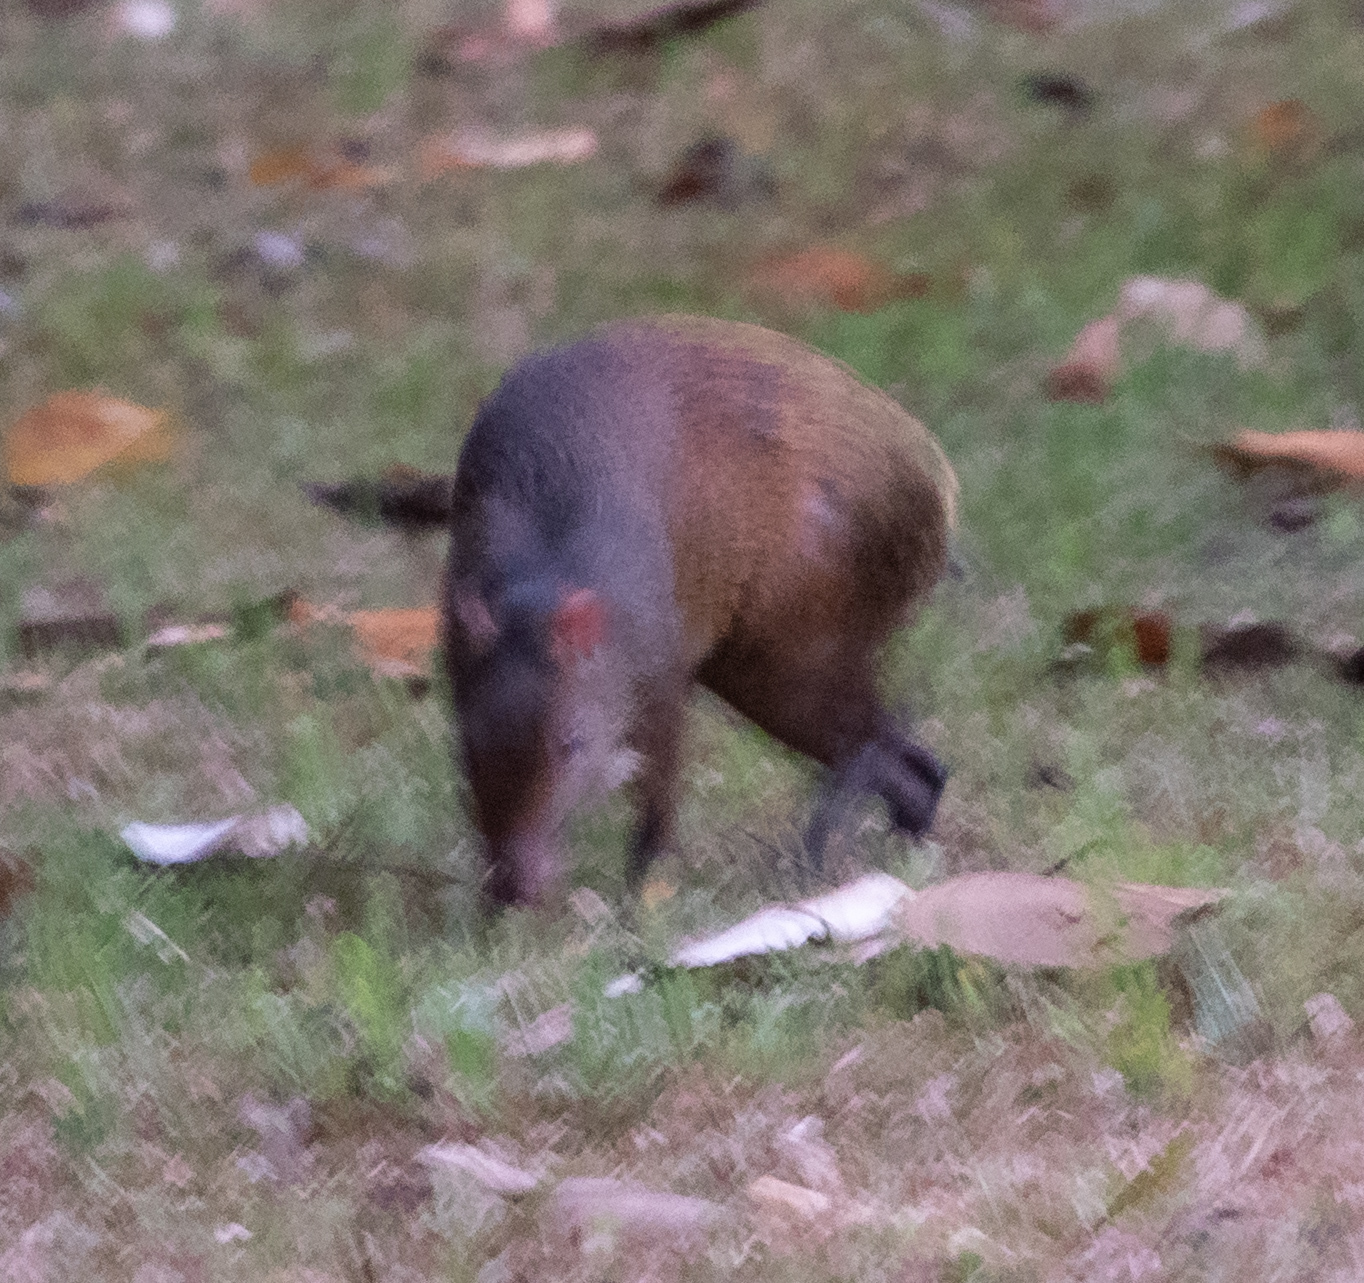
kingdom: Animalia
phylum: Chordata
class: Mammalia
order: Rodentia
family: Dasyproctidae
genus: Dasyprocta
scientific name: Dasyprocta punctata
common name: Central american agouti
